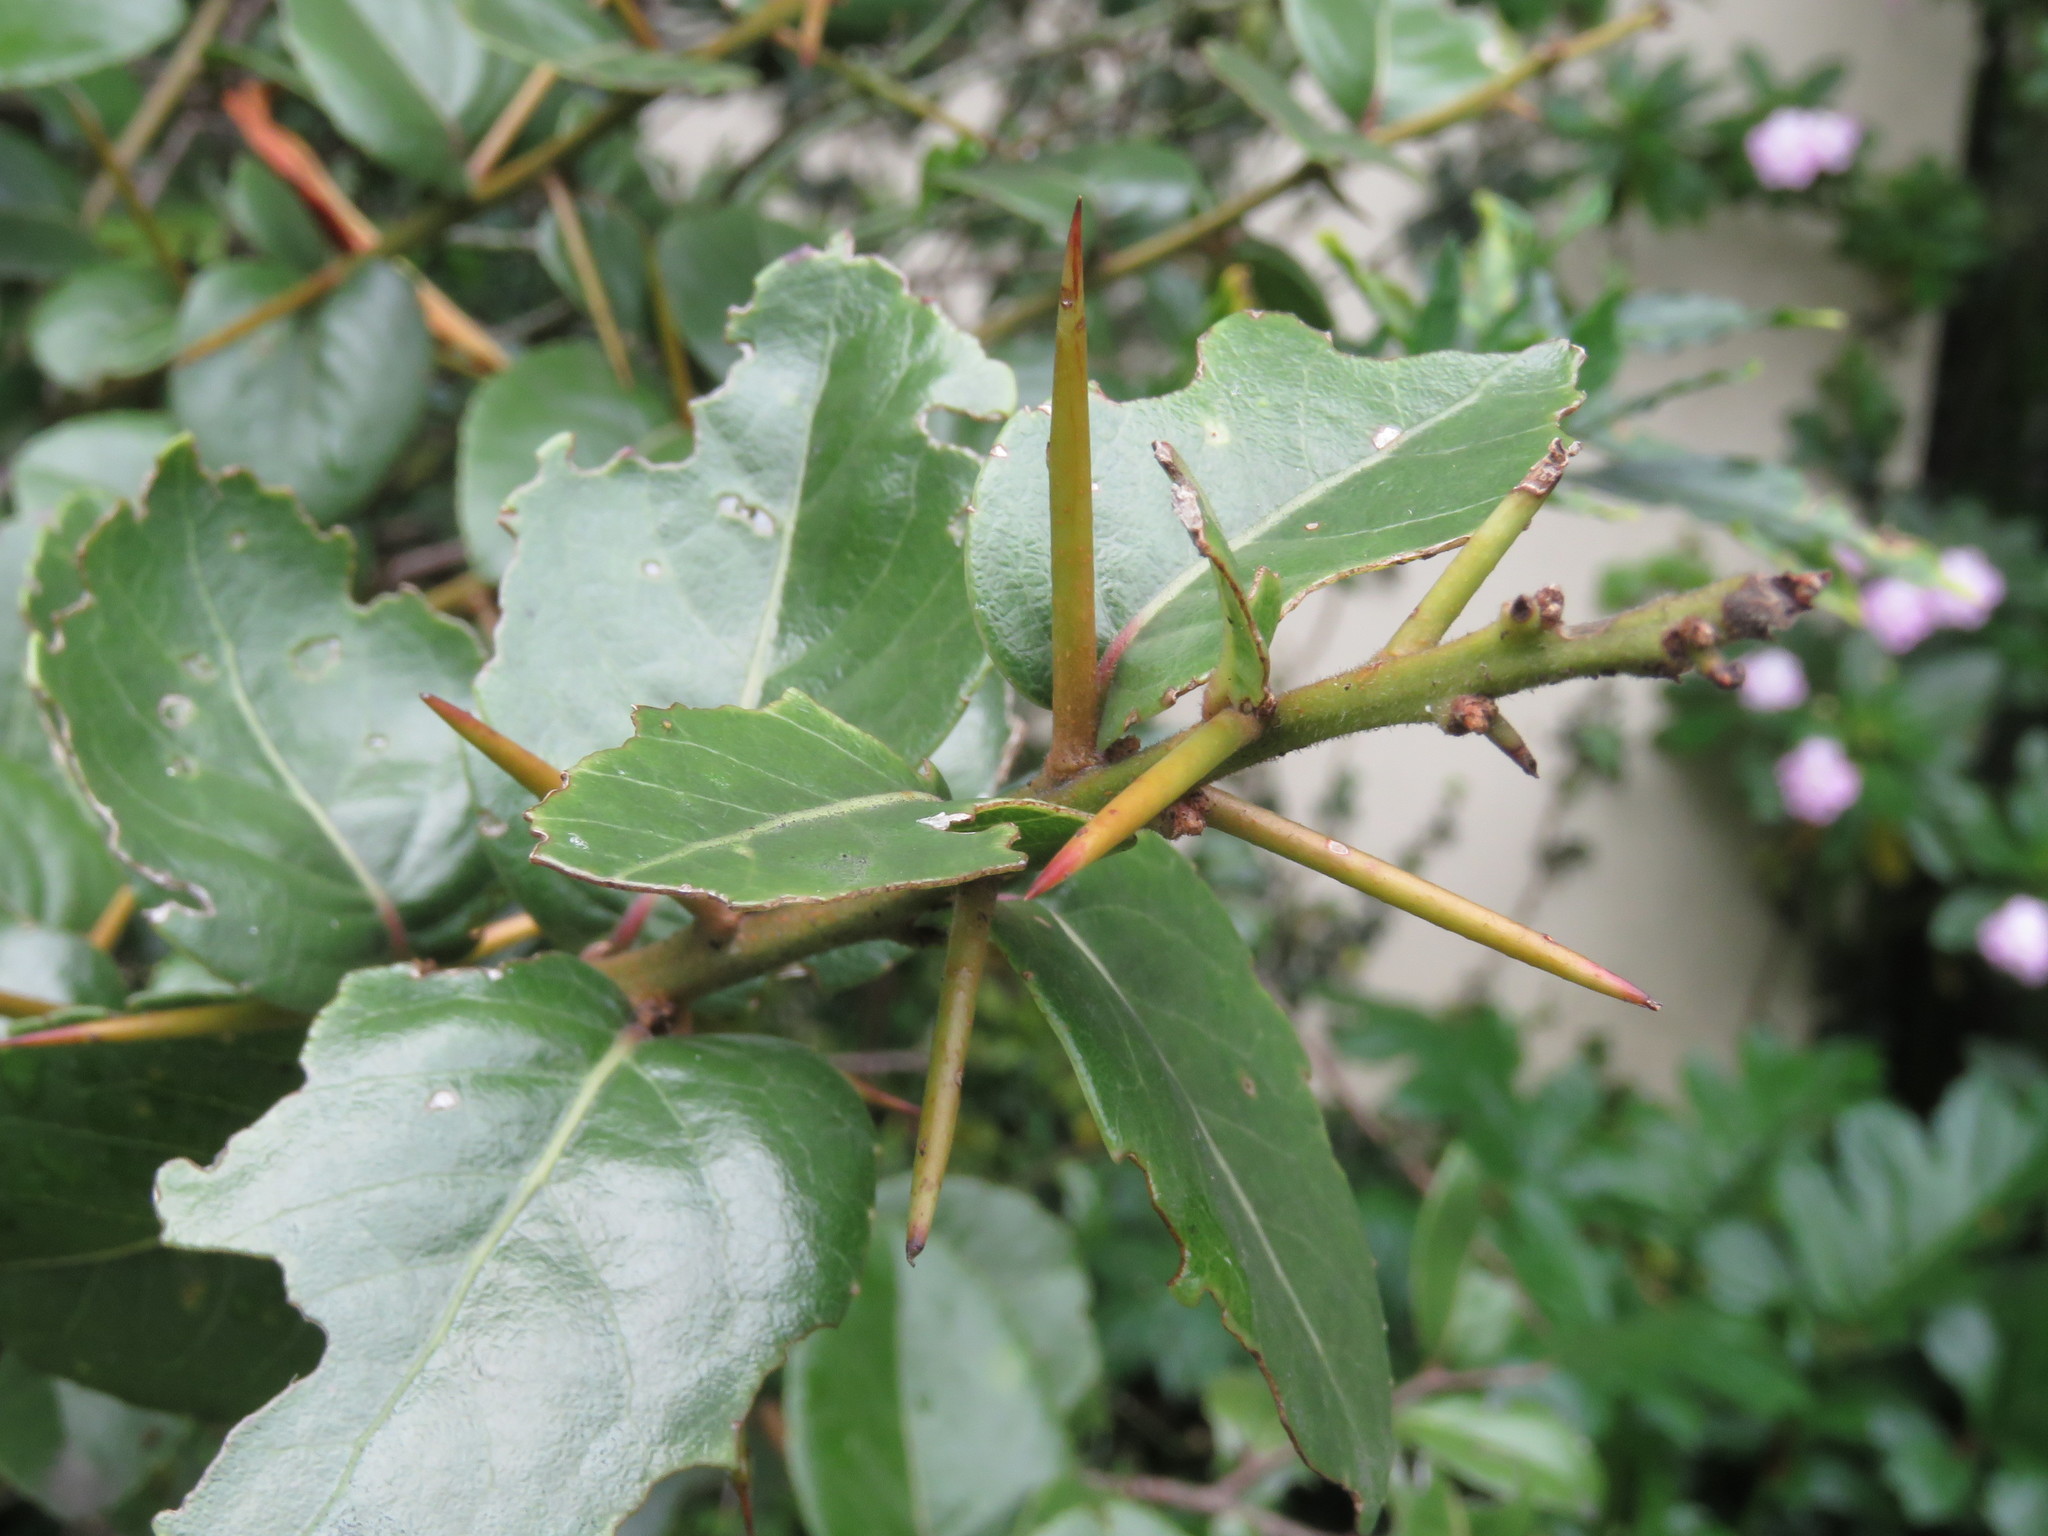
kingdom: Plantae
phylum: Tracheophyta
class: Magnoliopsida
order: Malpighiales
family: Salicaceae
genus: Xylosma
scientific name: Xylosma spiculifera
